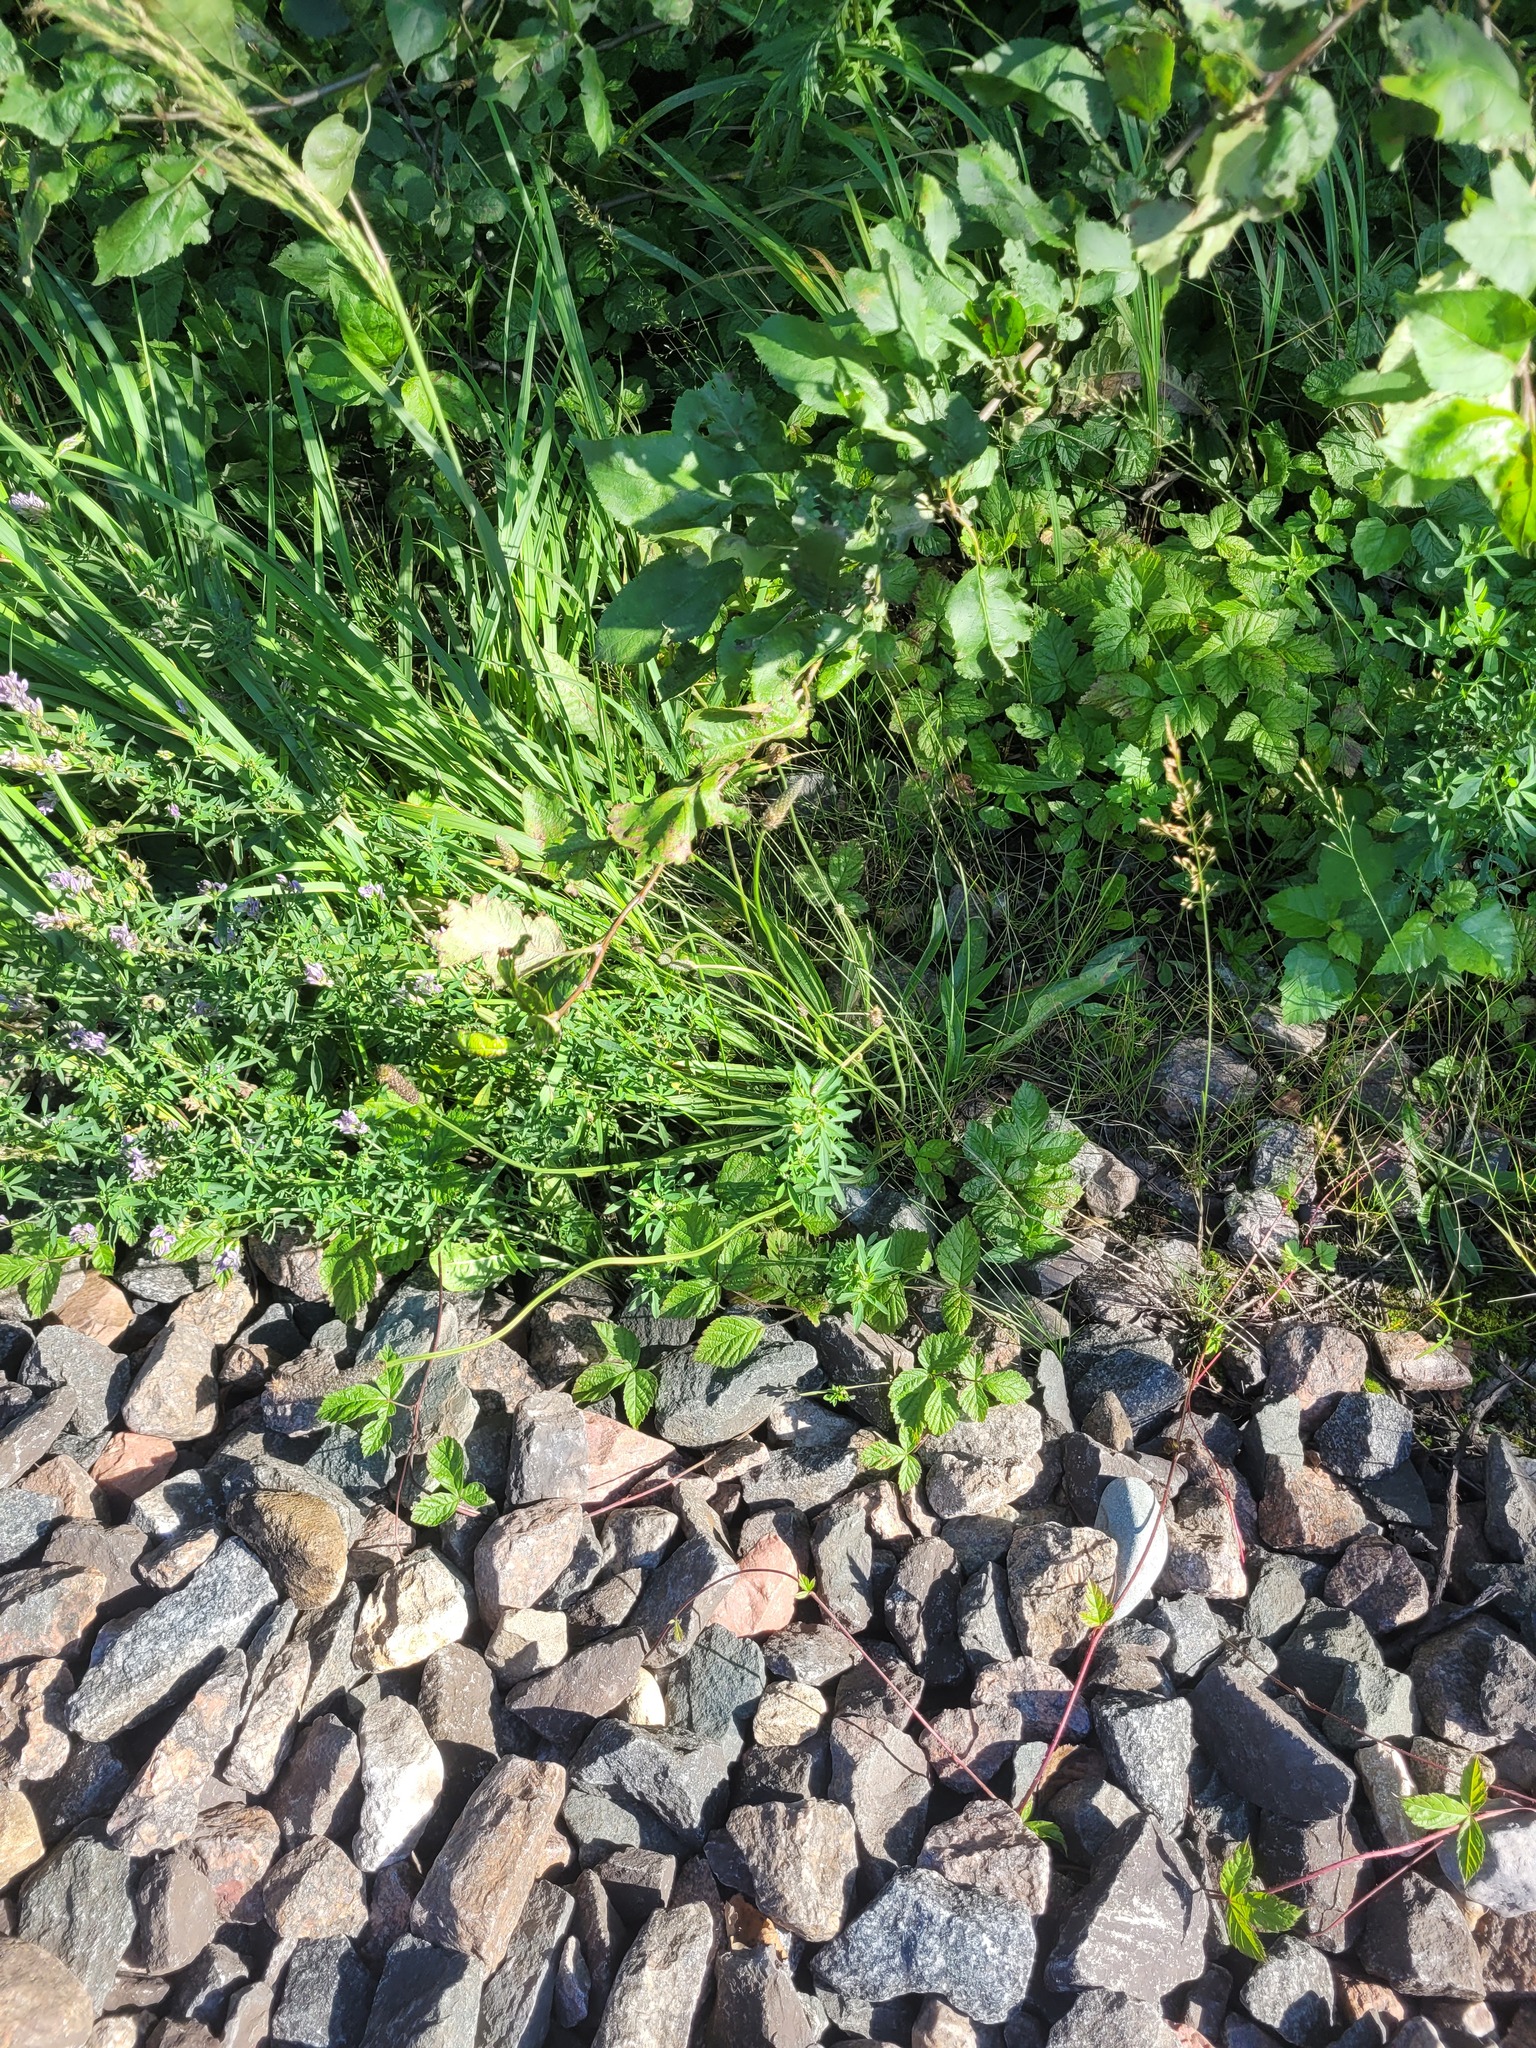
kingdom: Plantae
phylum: Tracheophyta
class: Magnoliopsida
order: Lamiales
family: Plantaginaceae
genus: Plantago
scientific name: Plantago lanceolata
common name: Ribwort plantain
